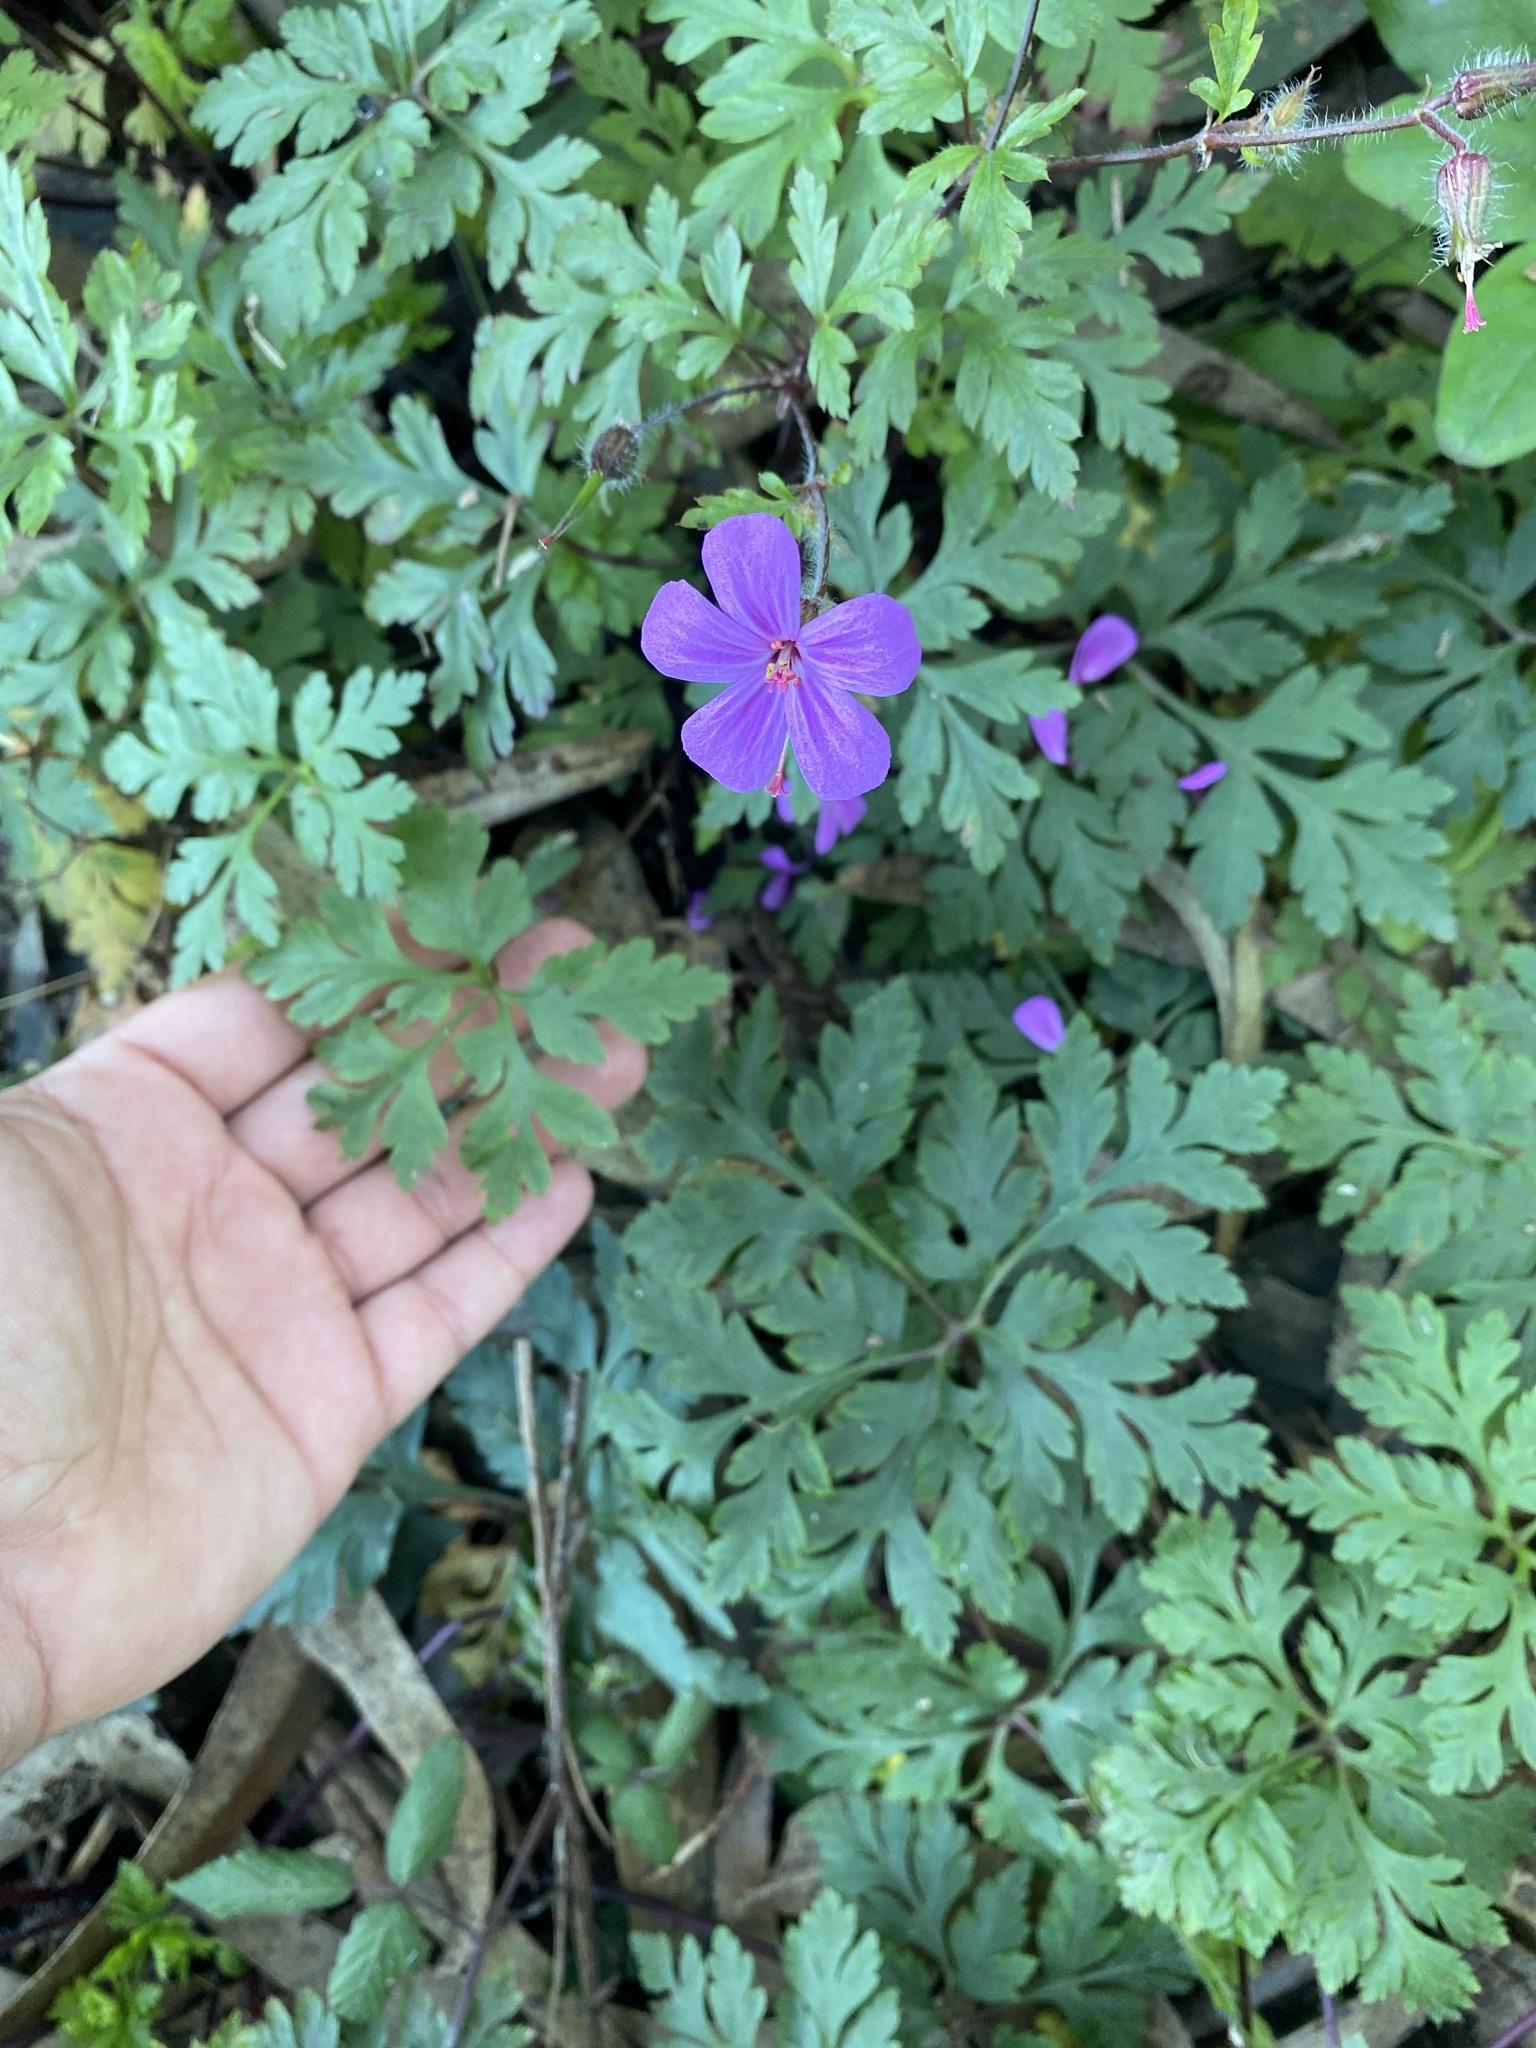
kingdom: Plantae
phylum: Tracheophyta
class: Magnoliopsida
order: Geraniales
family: Geraniaceae
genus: Geranium
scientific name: Geranium yeoi
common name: Greater herb robert
